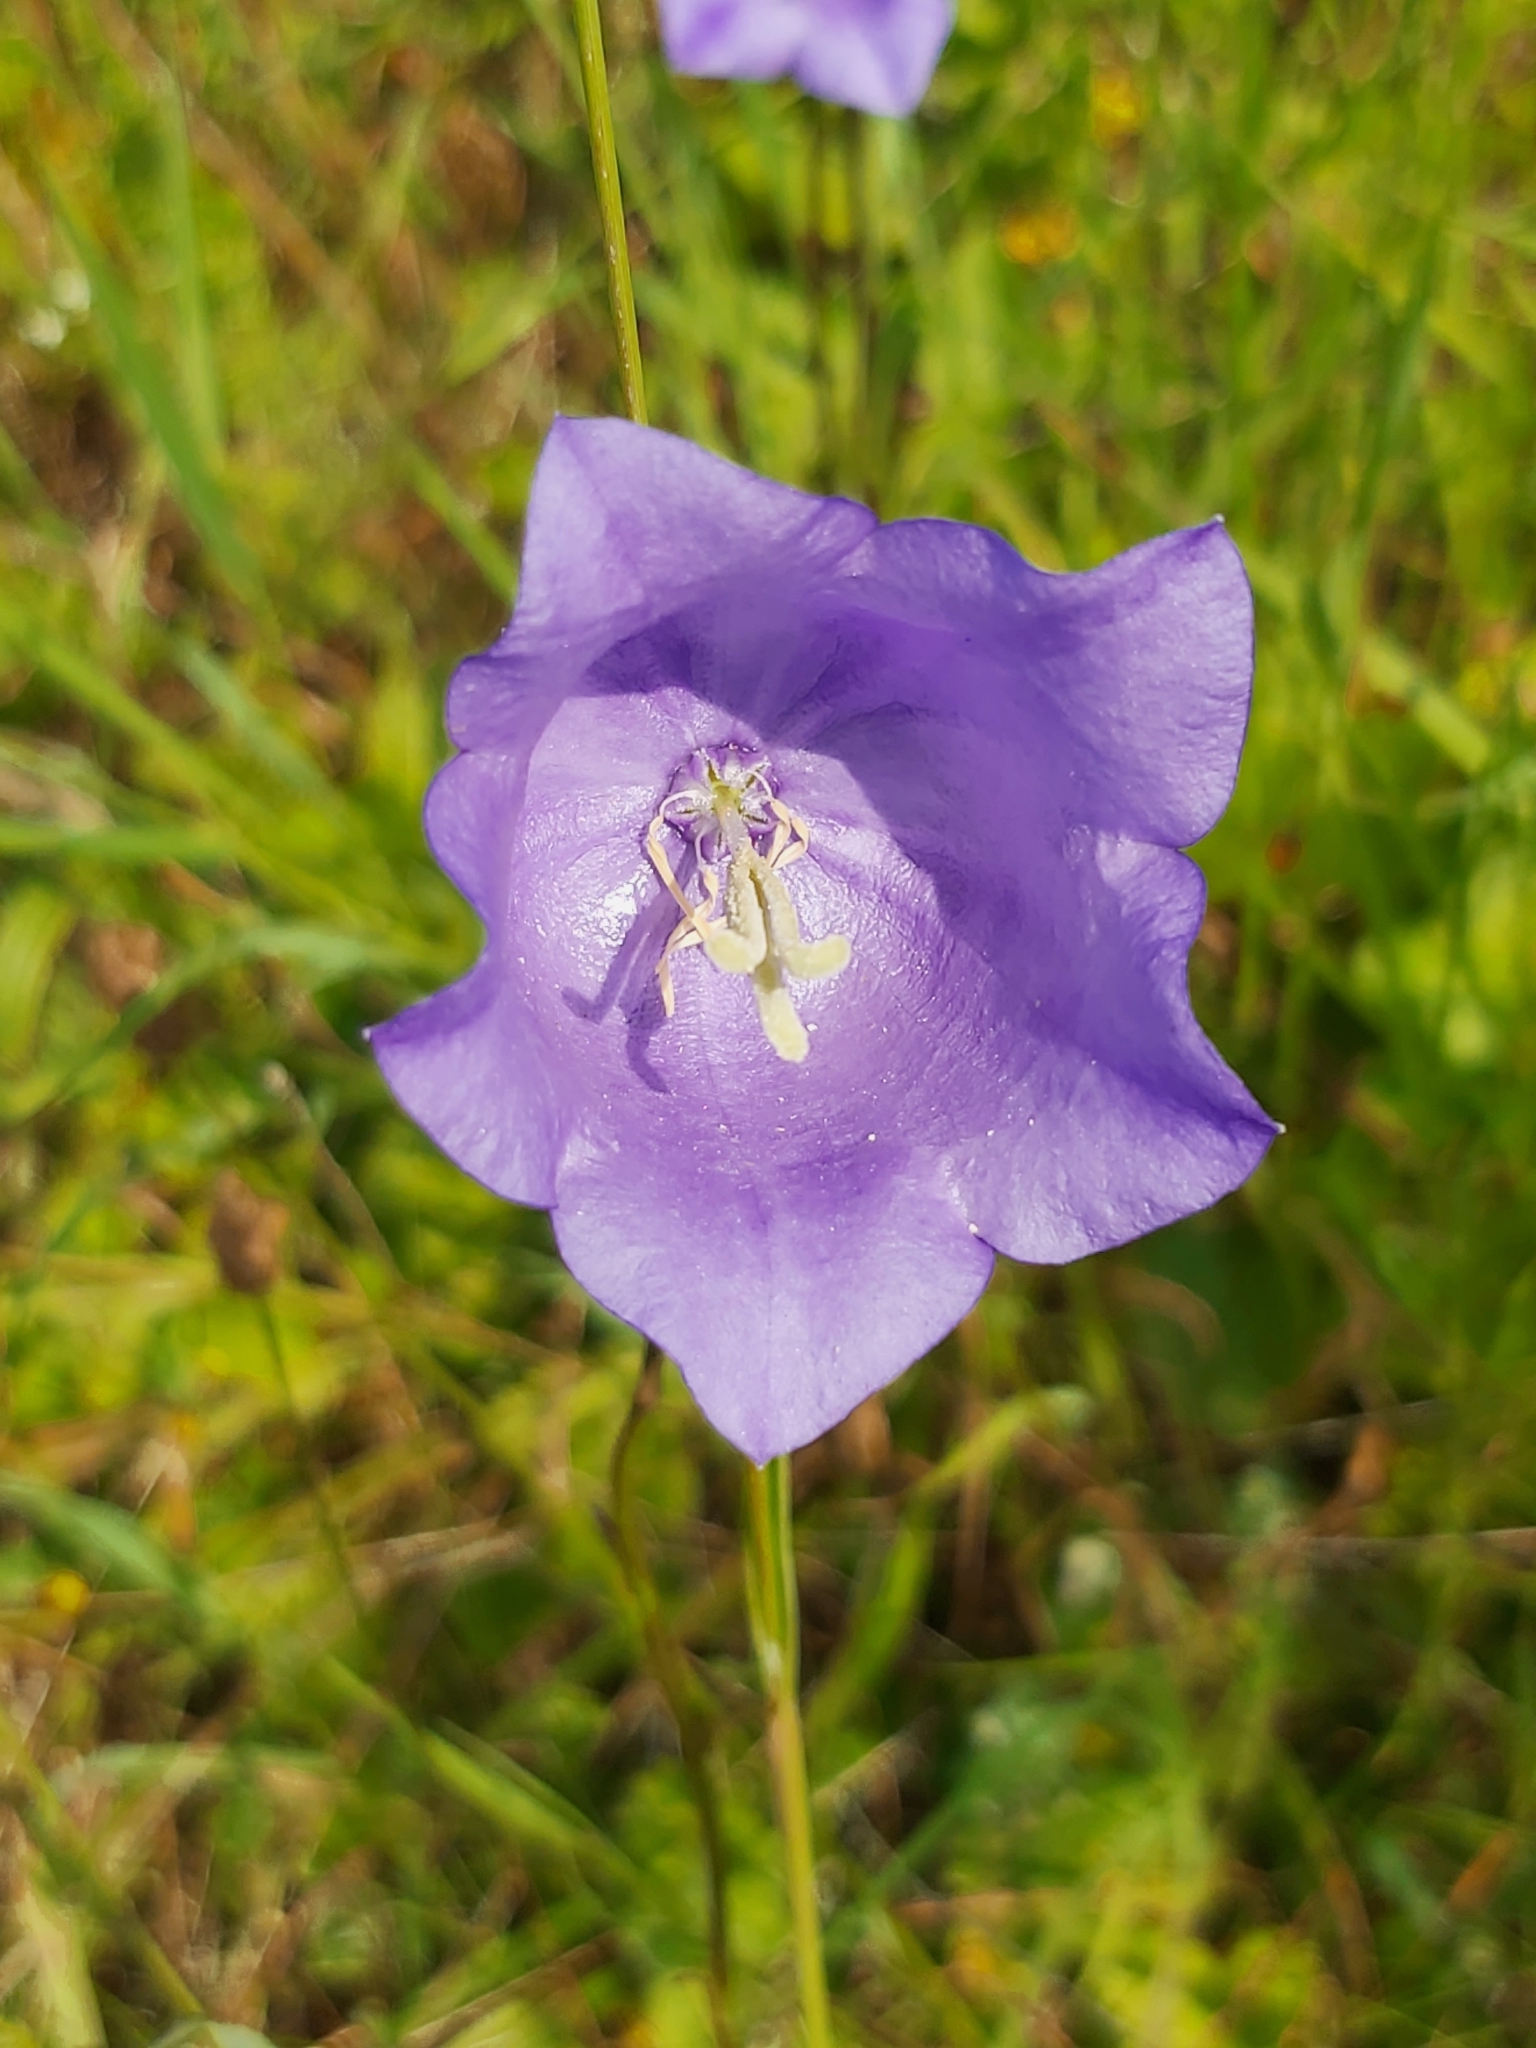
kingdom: Plantae
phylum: Tracheophyta
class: Magnoliopsida
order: Asterales
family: Campanulaceae
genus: Campanula
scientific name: Campanula persicifolia
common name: Peach-leaved bellflower
